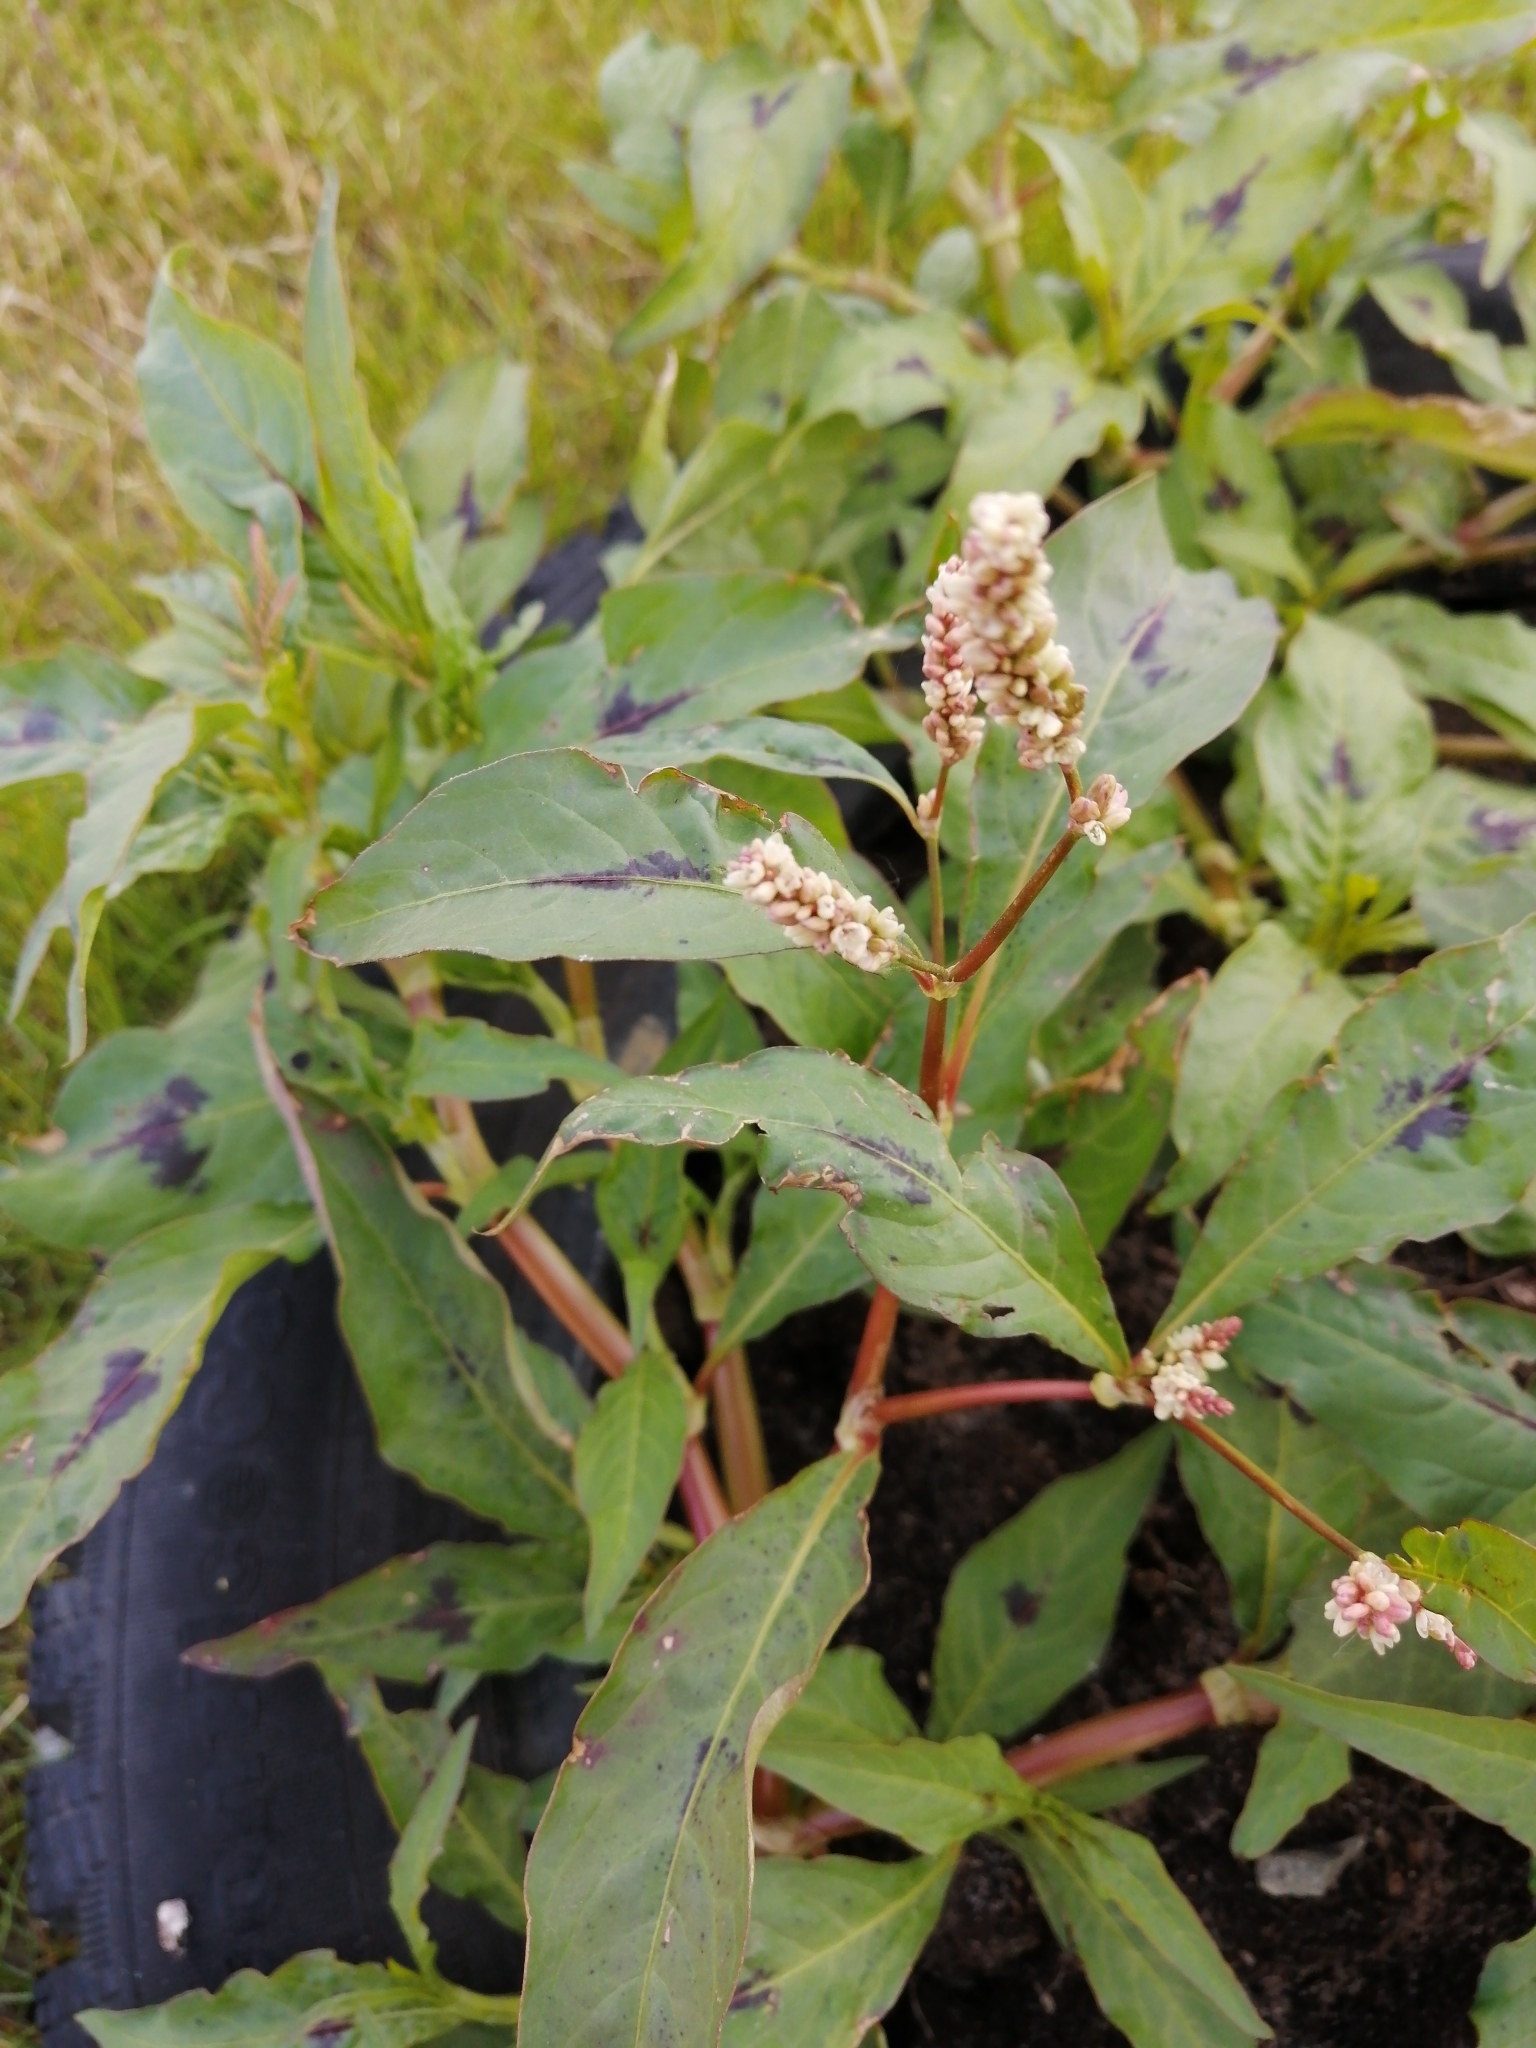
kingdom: Plantae
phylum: Tracheophyta
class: Magnoliopsida
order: Caryophyllales
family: Polygonaceae
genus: Persicaria
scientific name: Persicaria maculosa
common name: Redshank
